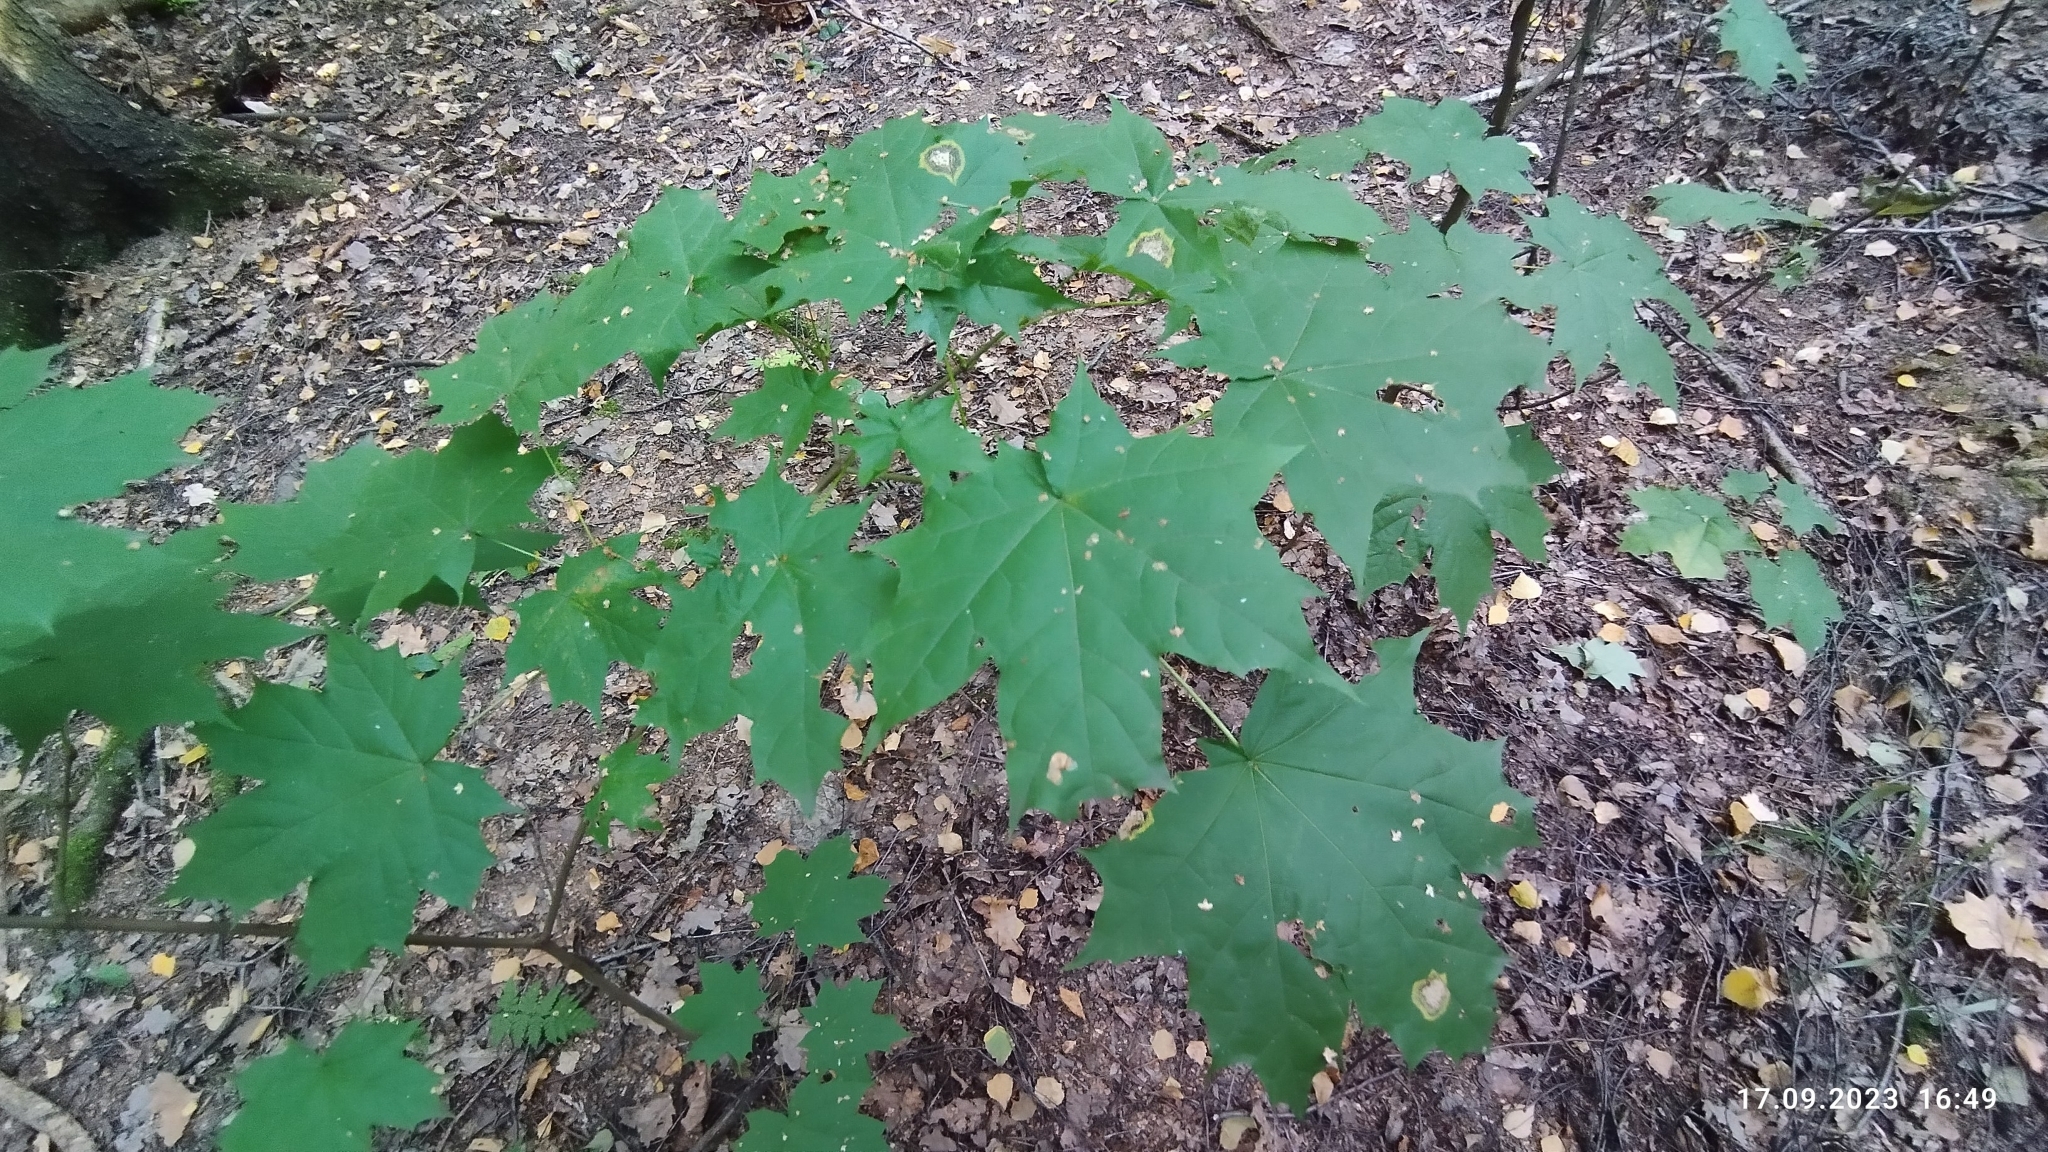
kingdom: Plantae
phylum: Tracheophyta
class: Magnoliopsida
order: Sapindales
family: Sapindaceae
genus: Acer
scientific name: Acer platanoides
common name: Norway maple
